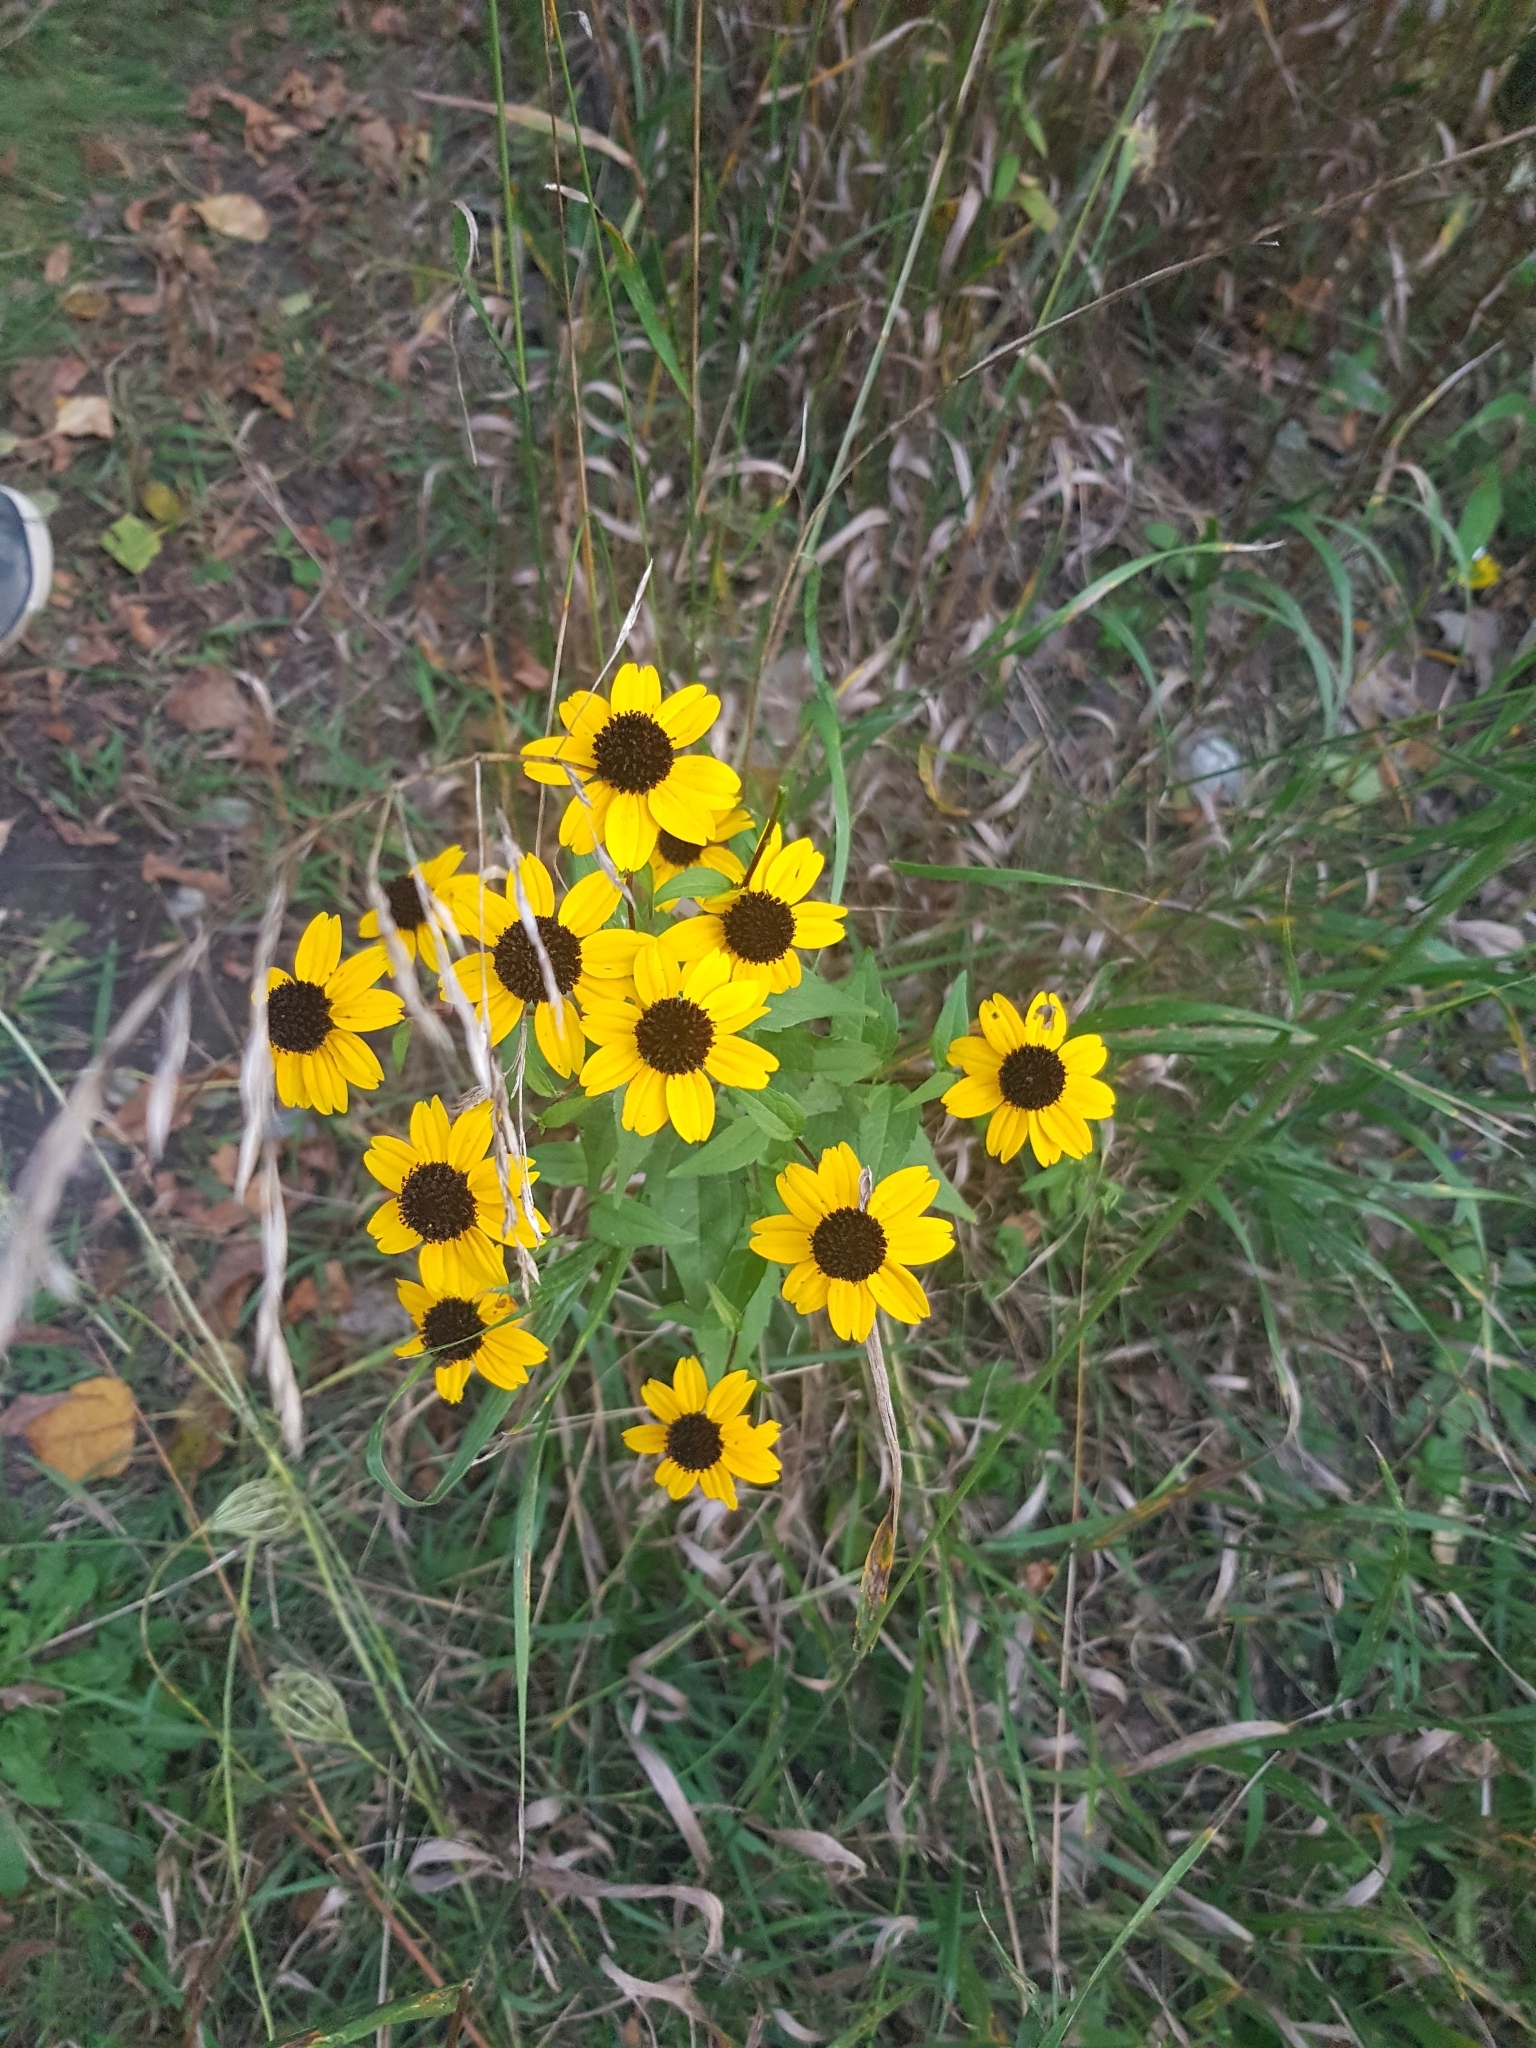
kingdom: Plantae
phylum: Tracheophyta
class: Magnoliopsida
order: Asterales
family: Asteraceae
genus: Rudbeckia
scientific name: Rudbeckia triloba
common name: Thin-leaved coneflower
